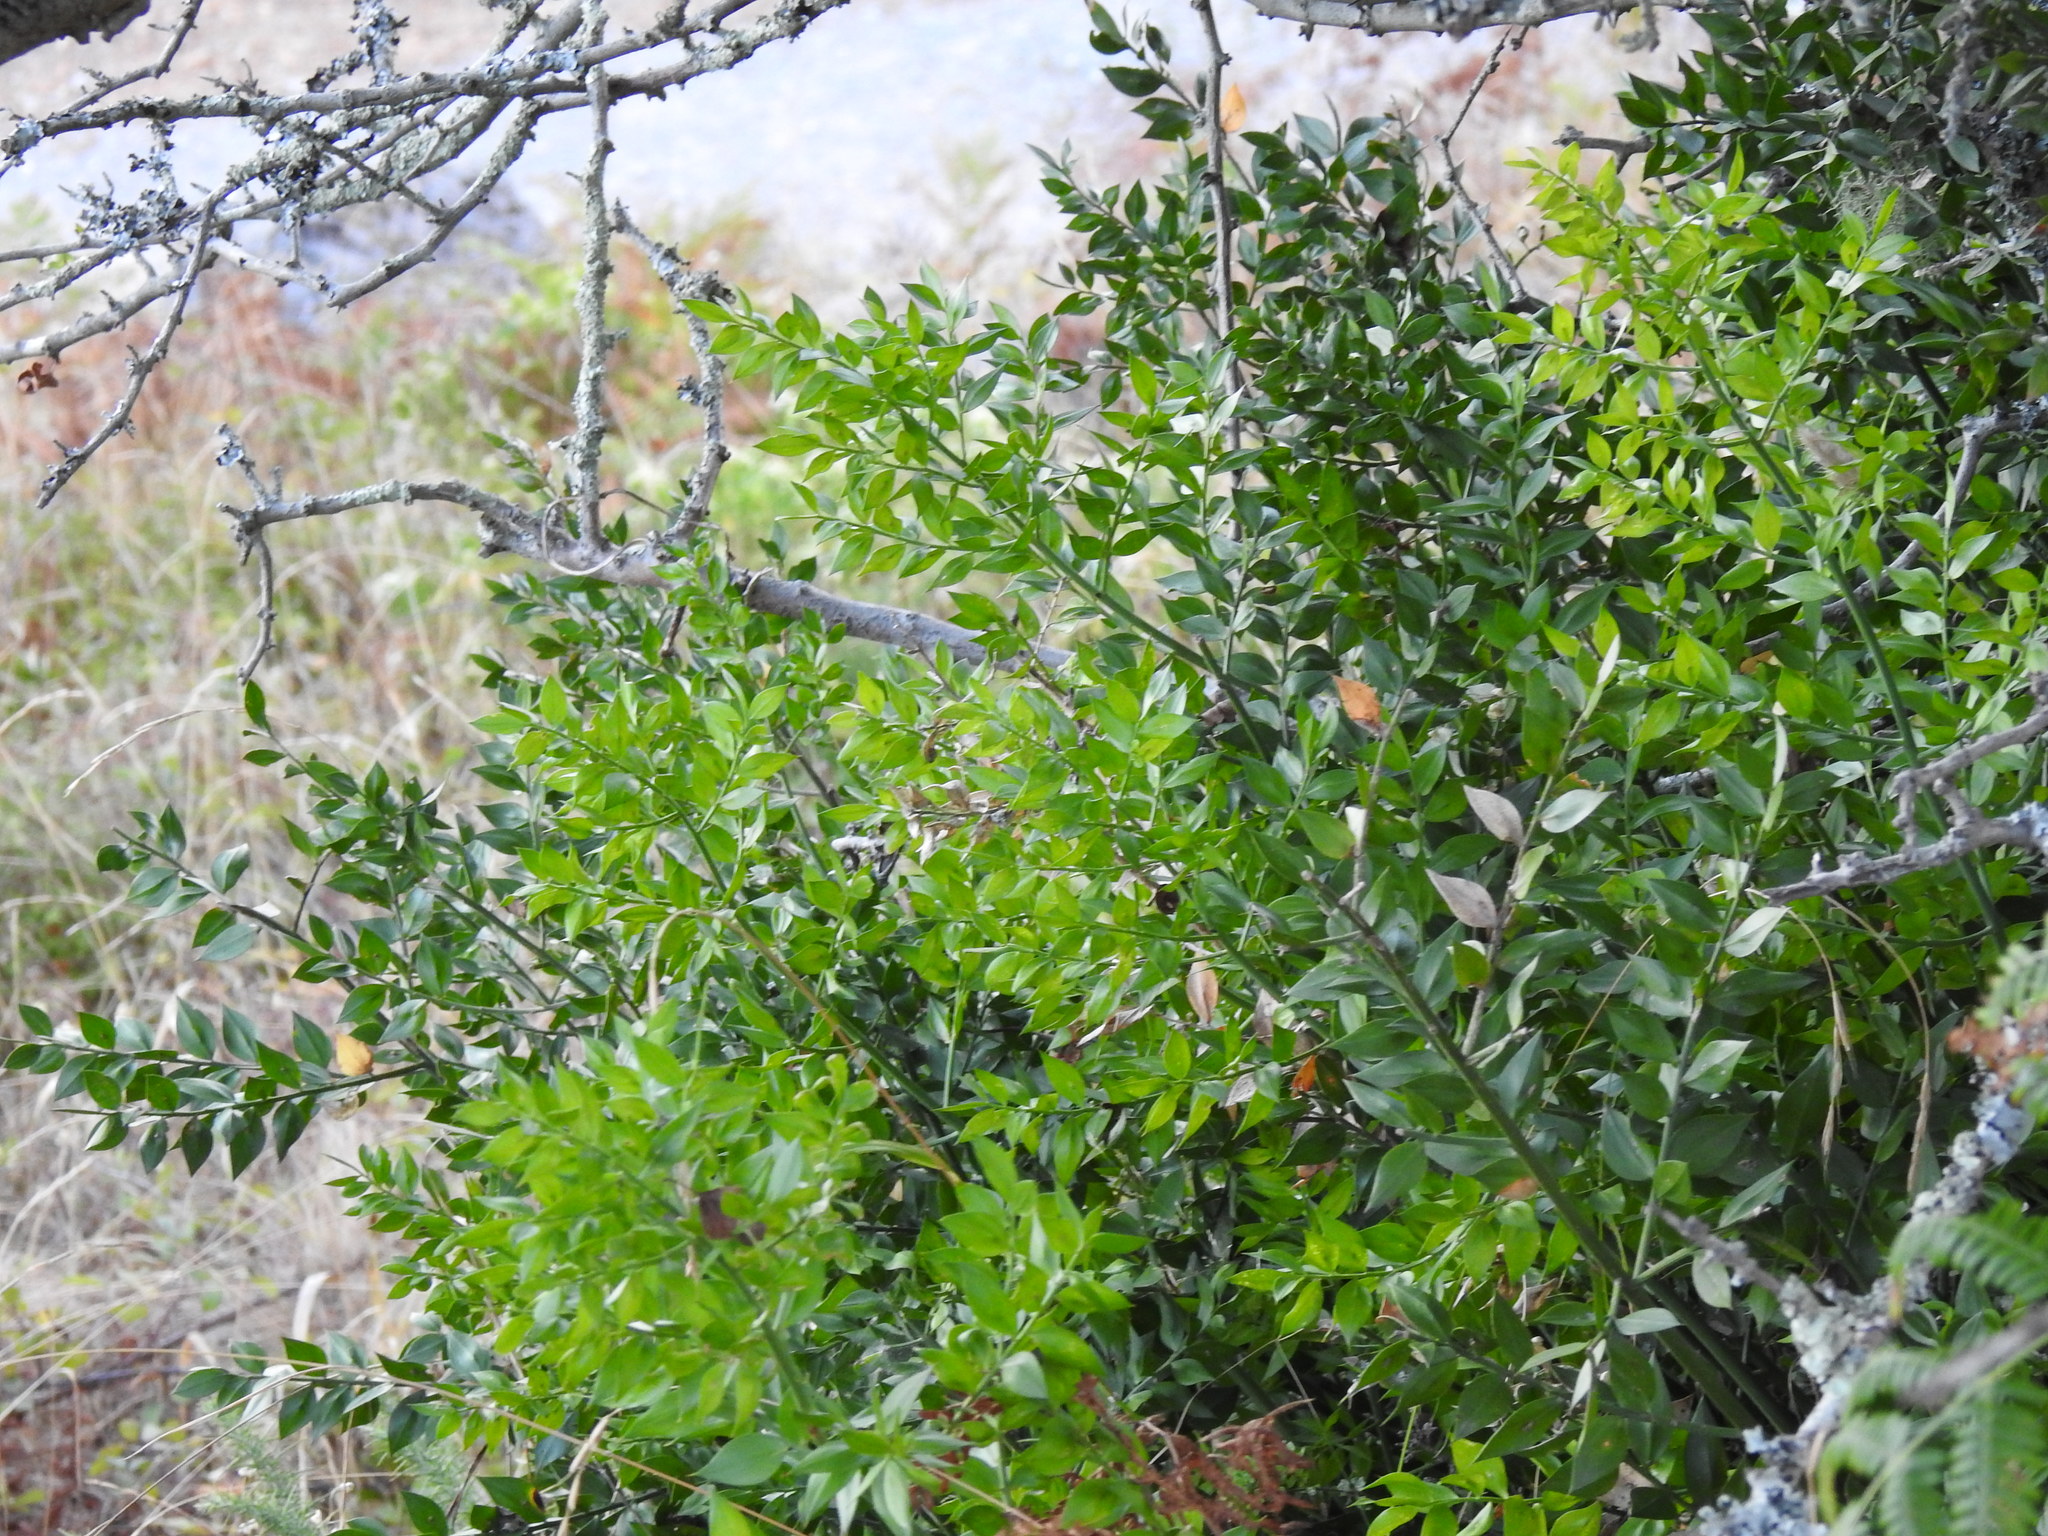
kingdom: Plantae
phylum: Tracheophyta
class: Liliopsida
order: Asparagales
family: Asparagaceae
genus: Ruscus
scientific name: Ruscus aculeatus
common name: Butcher's-broom
